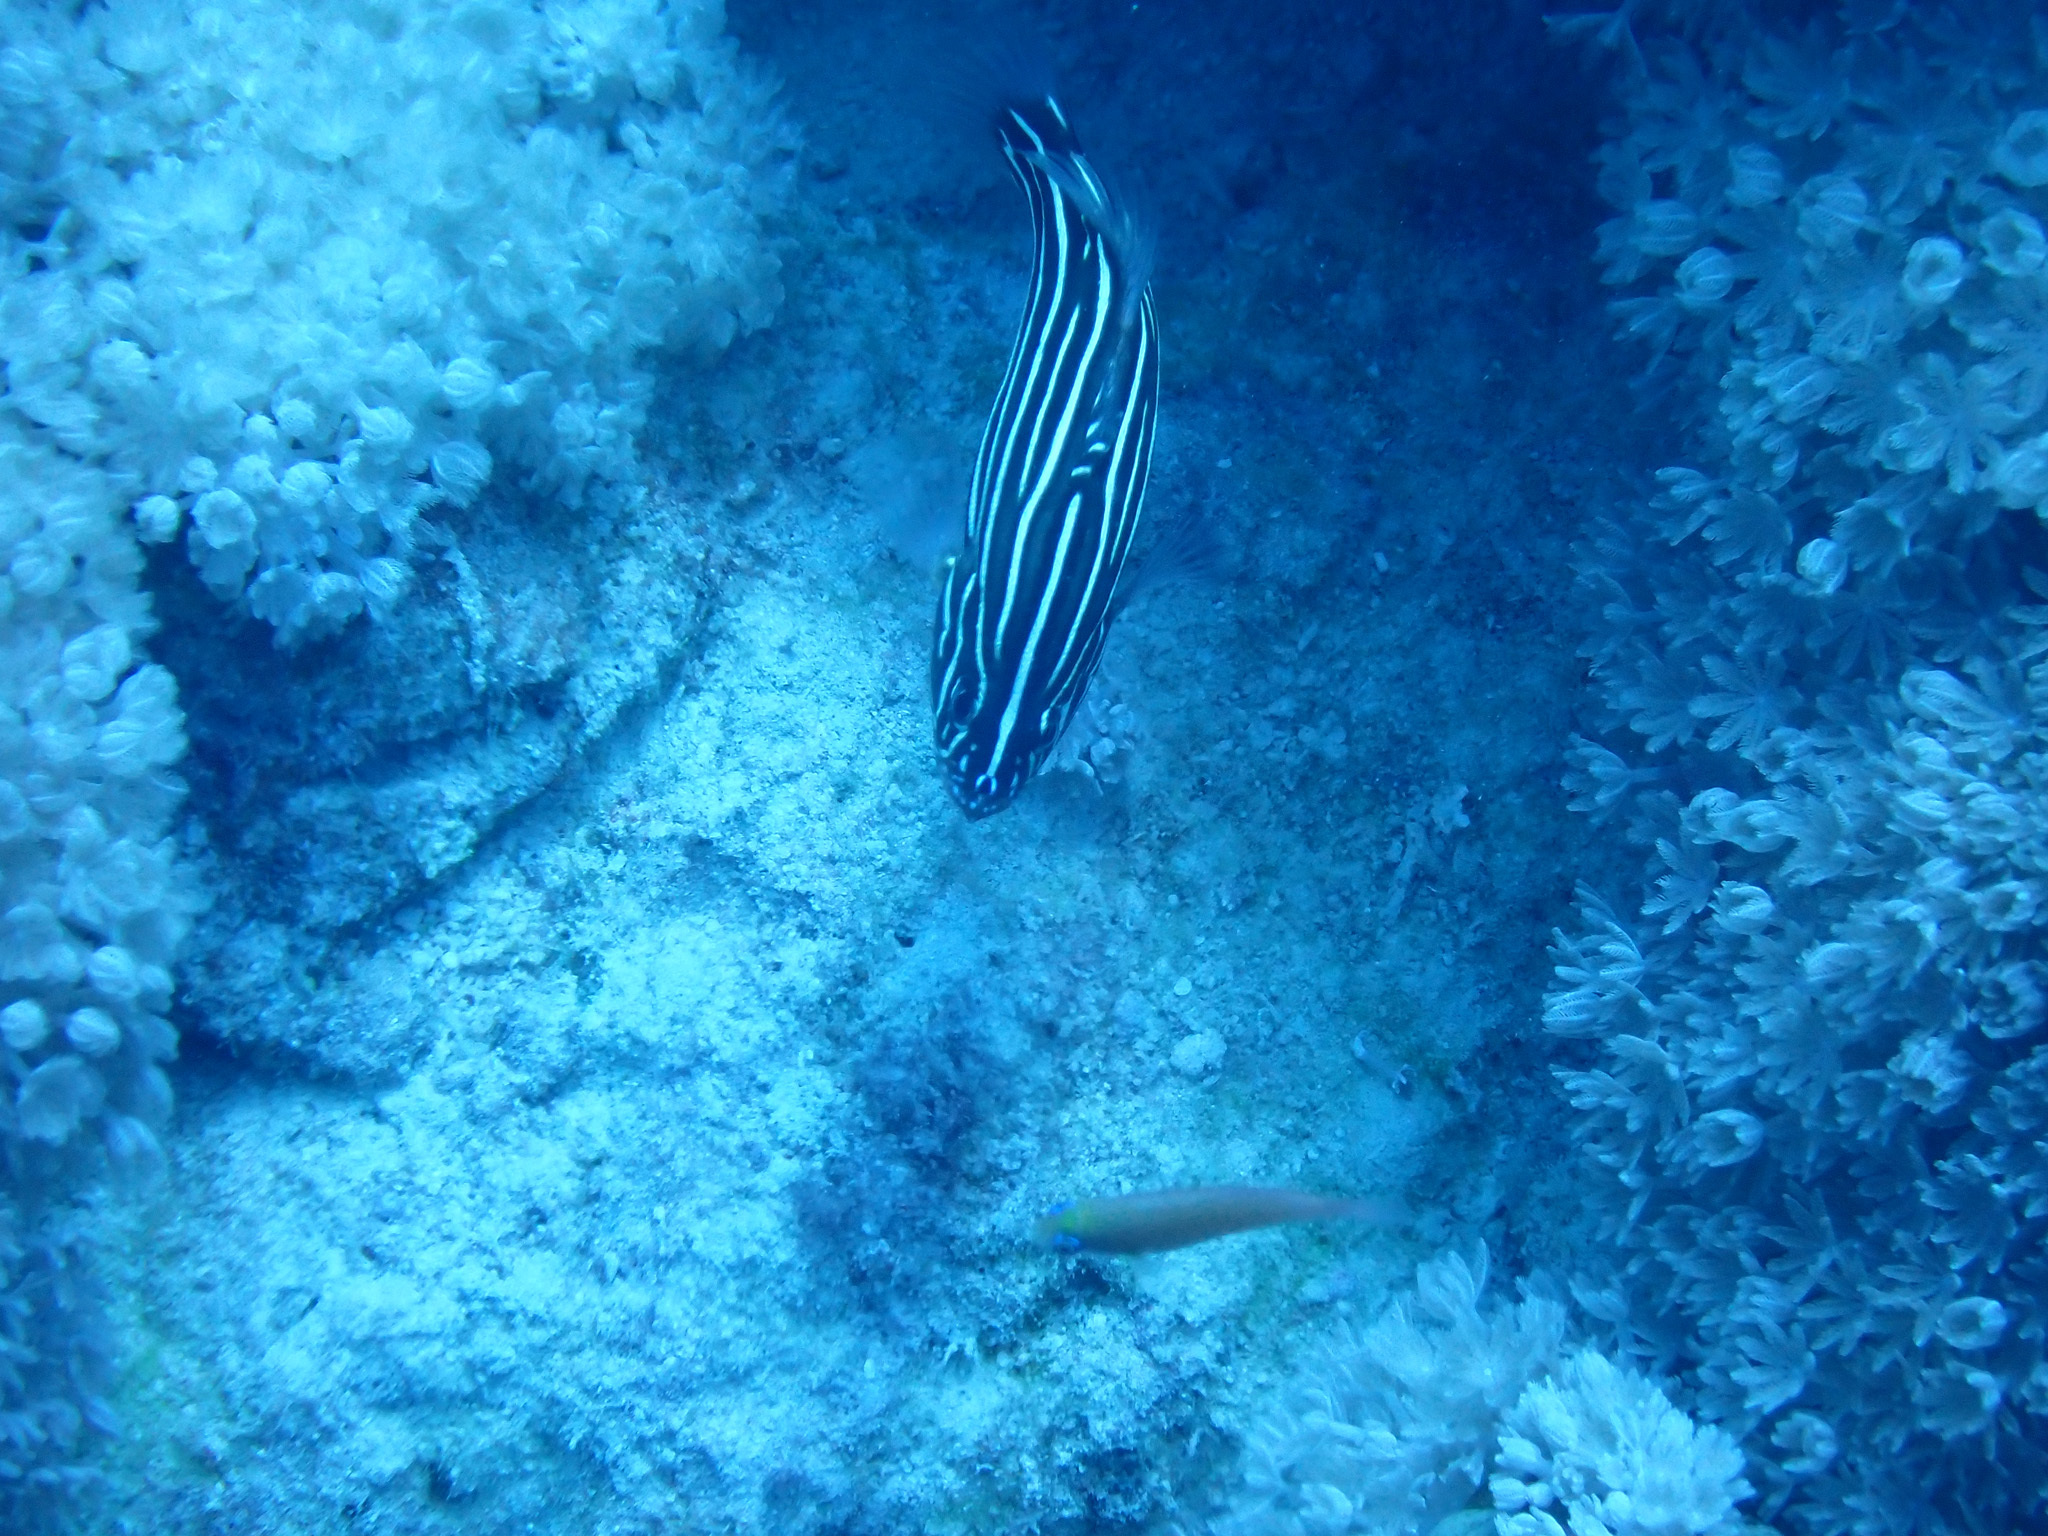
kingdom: Animalia
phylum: Chordata
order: Perciformes
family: Serranidae
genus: Grammistes
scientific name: Grammistes sexlineatus
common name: Sixline soapfish
